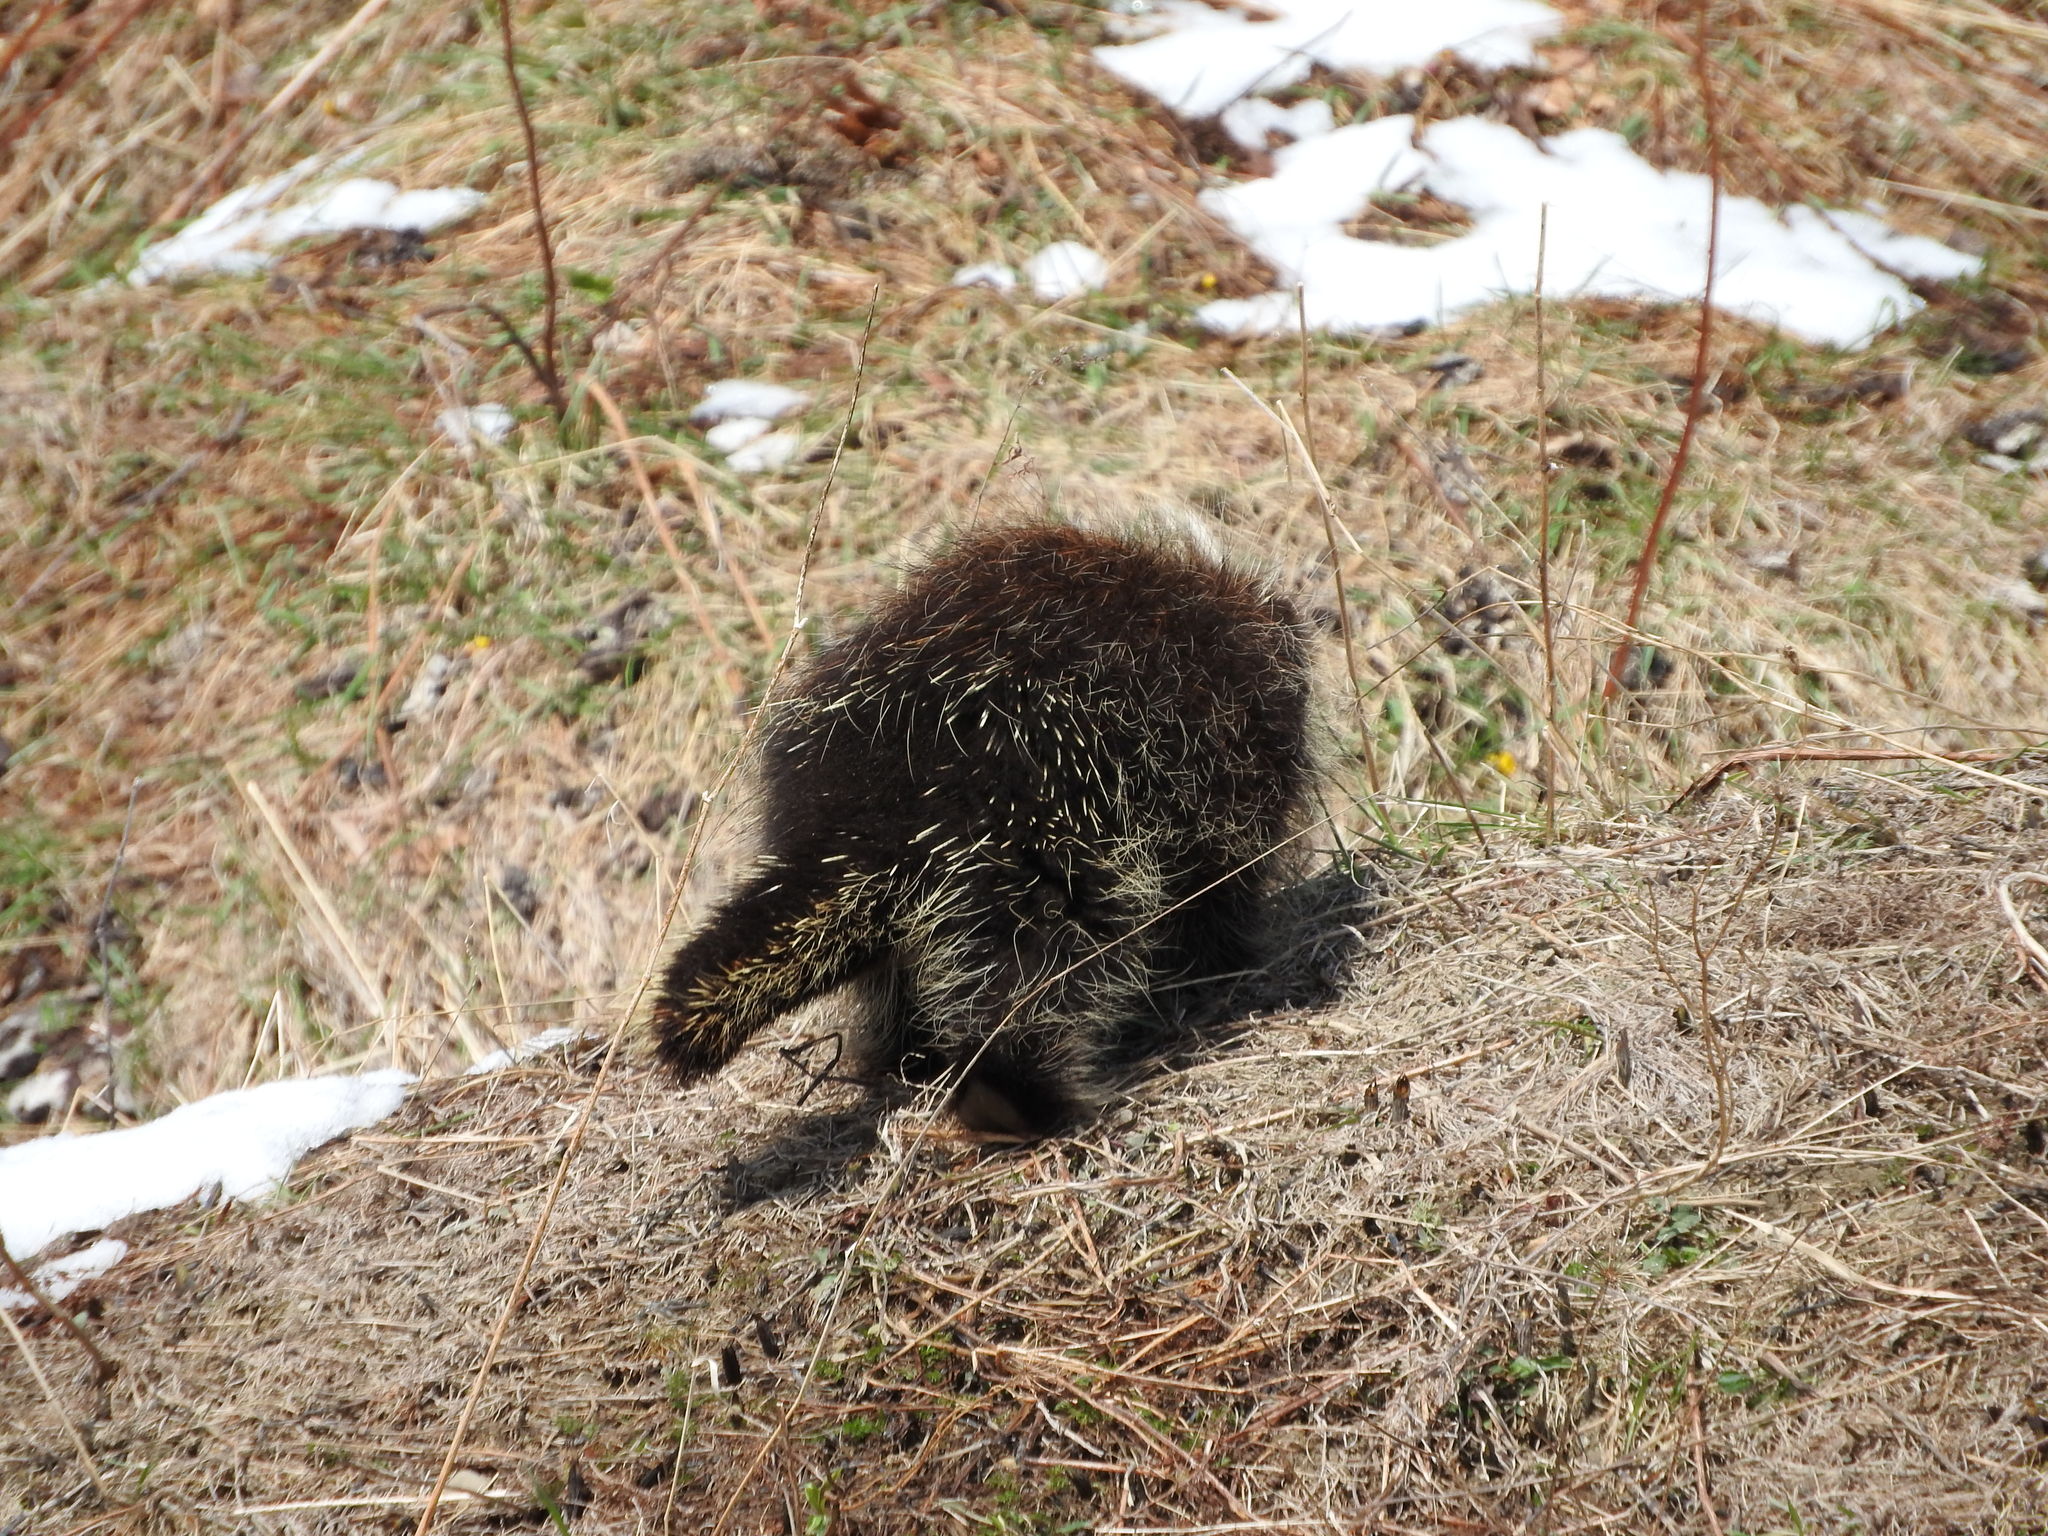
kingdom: Animalia
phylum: Chordata
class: Mammalia
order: Rodentia
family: Erethizontidae
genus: Erethizon
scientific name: Erethizon dorsatus
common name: North american porcupine
